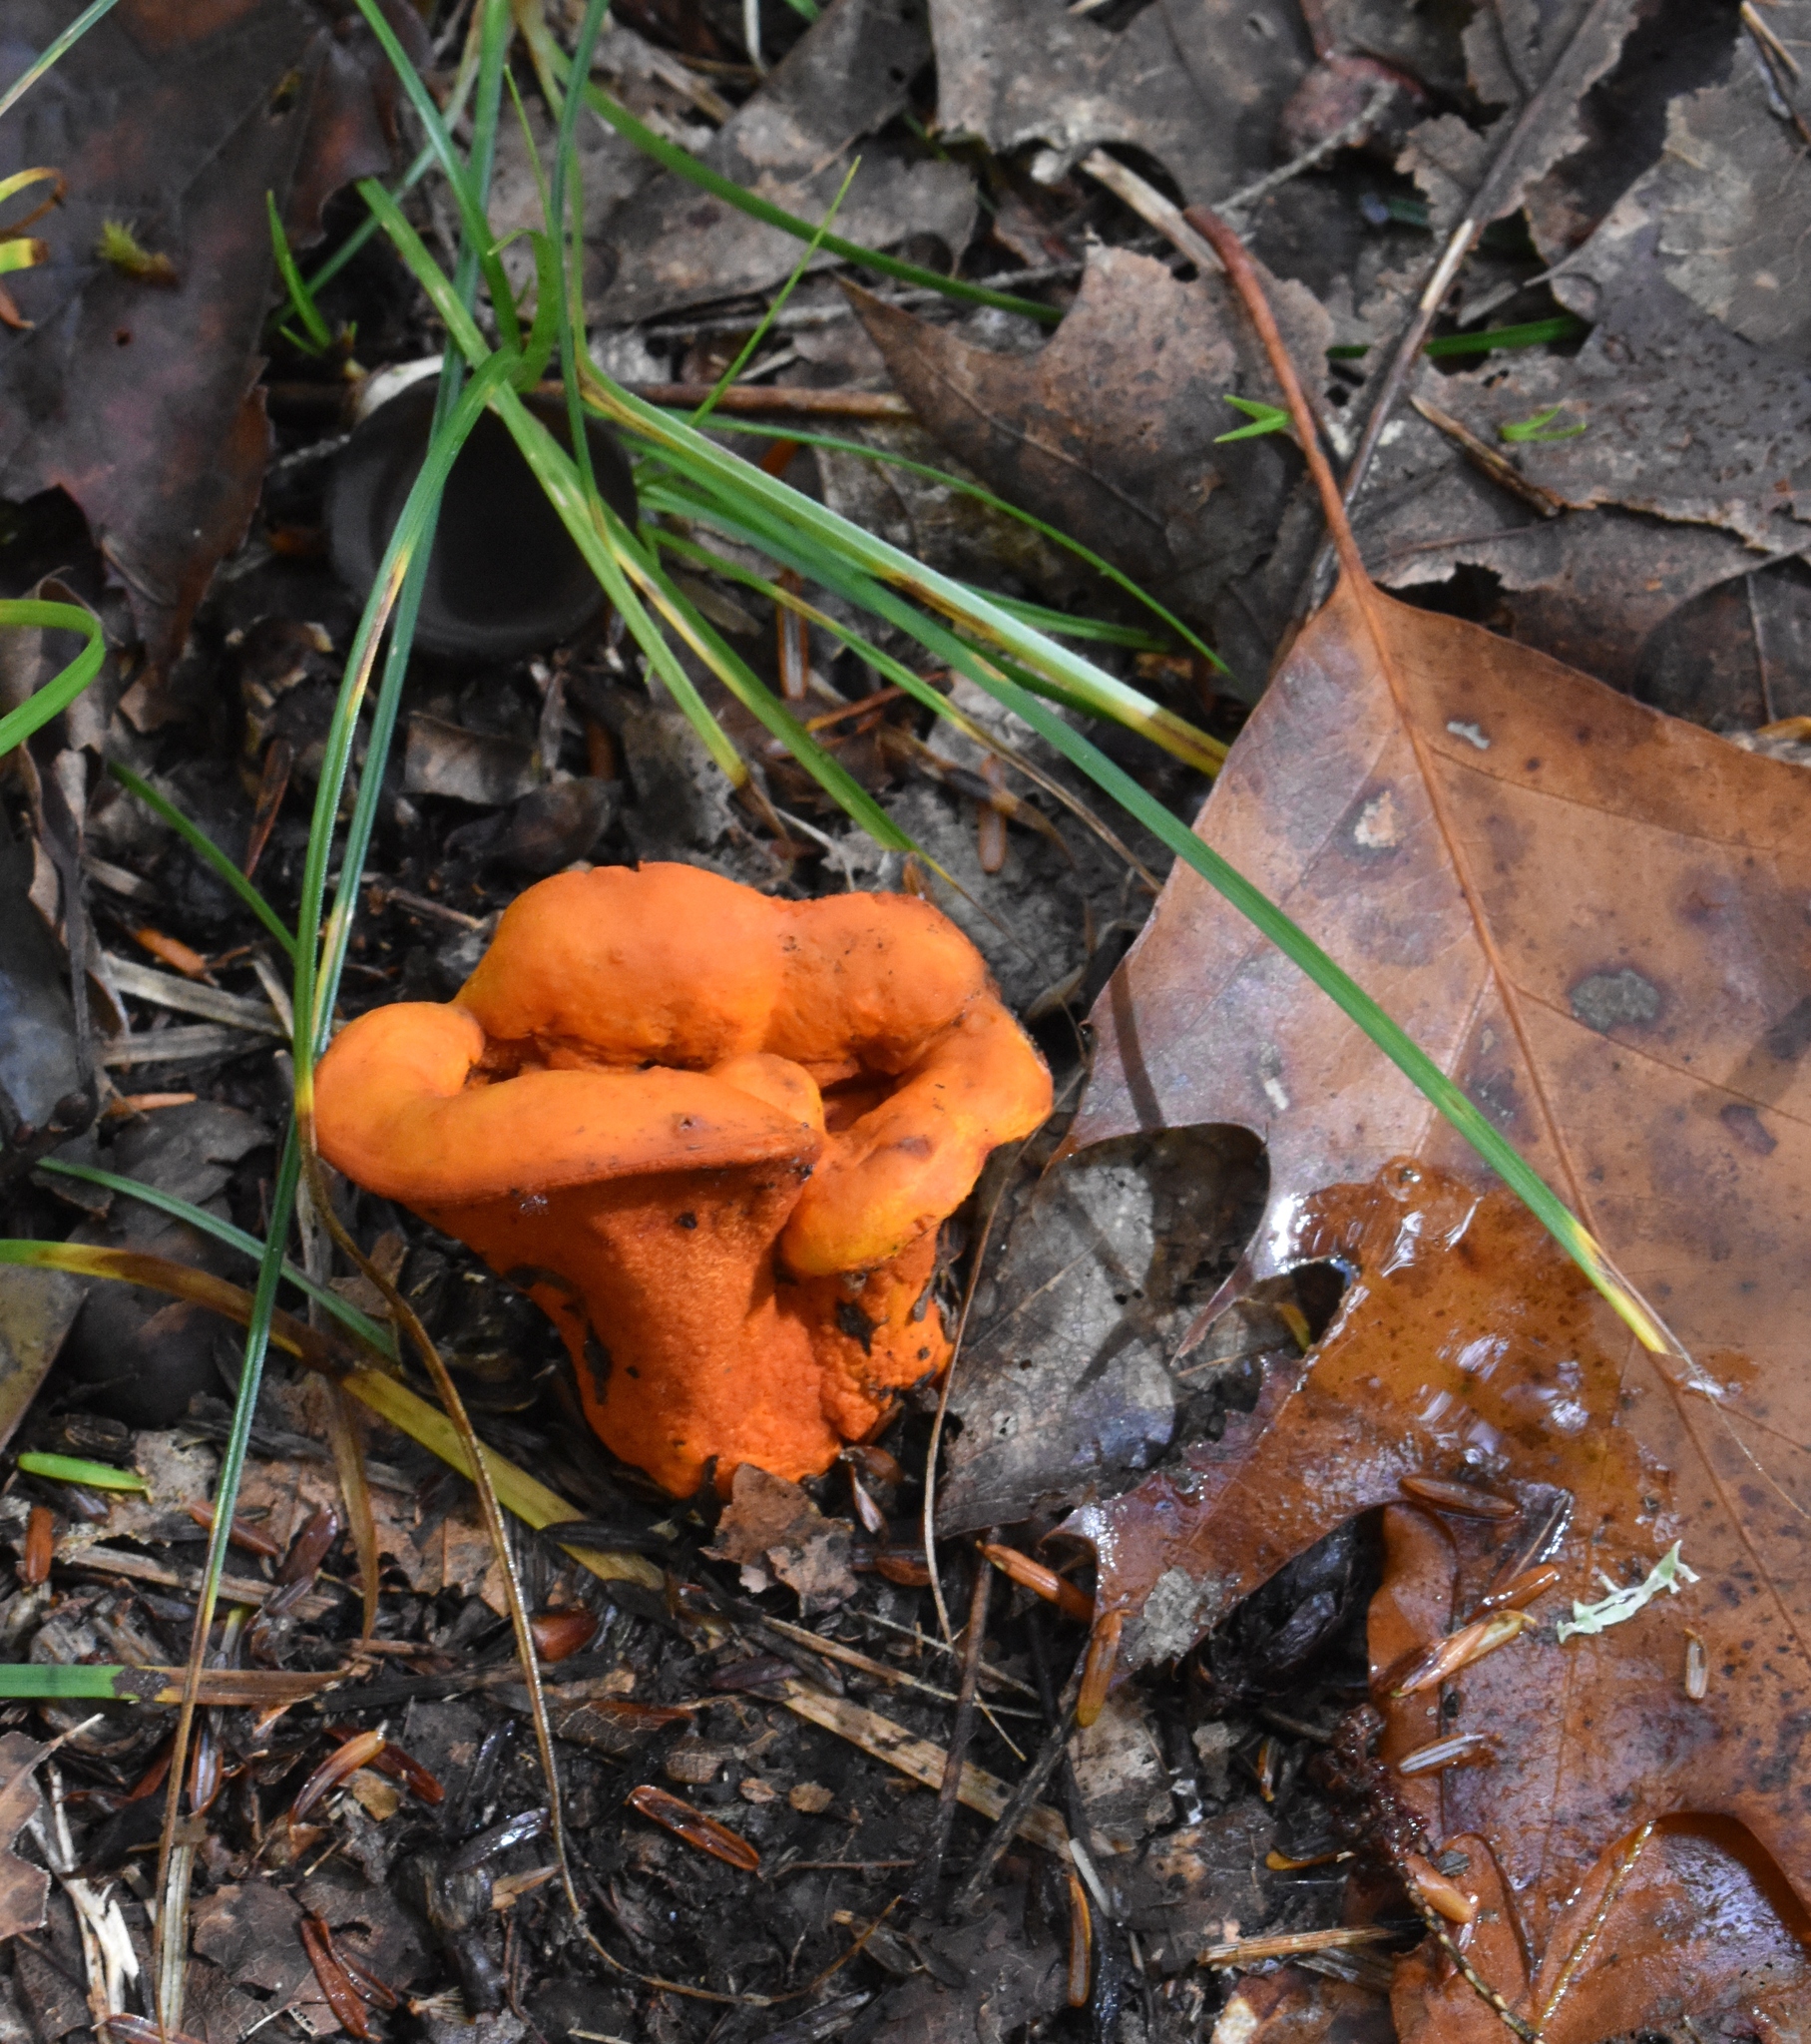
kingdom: Fungi
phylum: Ascomycota
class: Sordariomycetes
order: Hypocreales
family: Hypocreaceae
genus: Hypomyces
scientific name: Hypomyces lactifluorum
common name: Lobster mushroom
